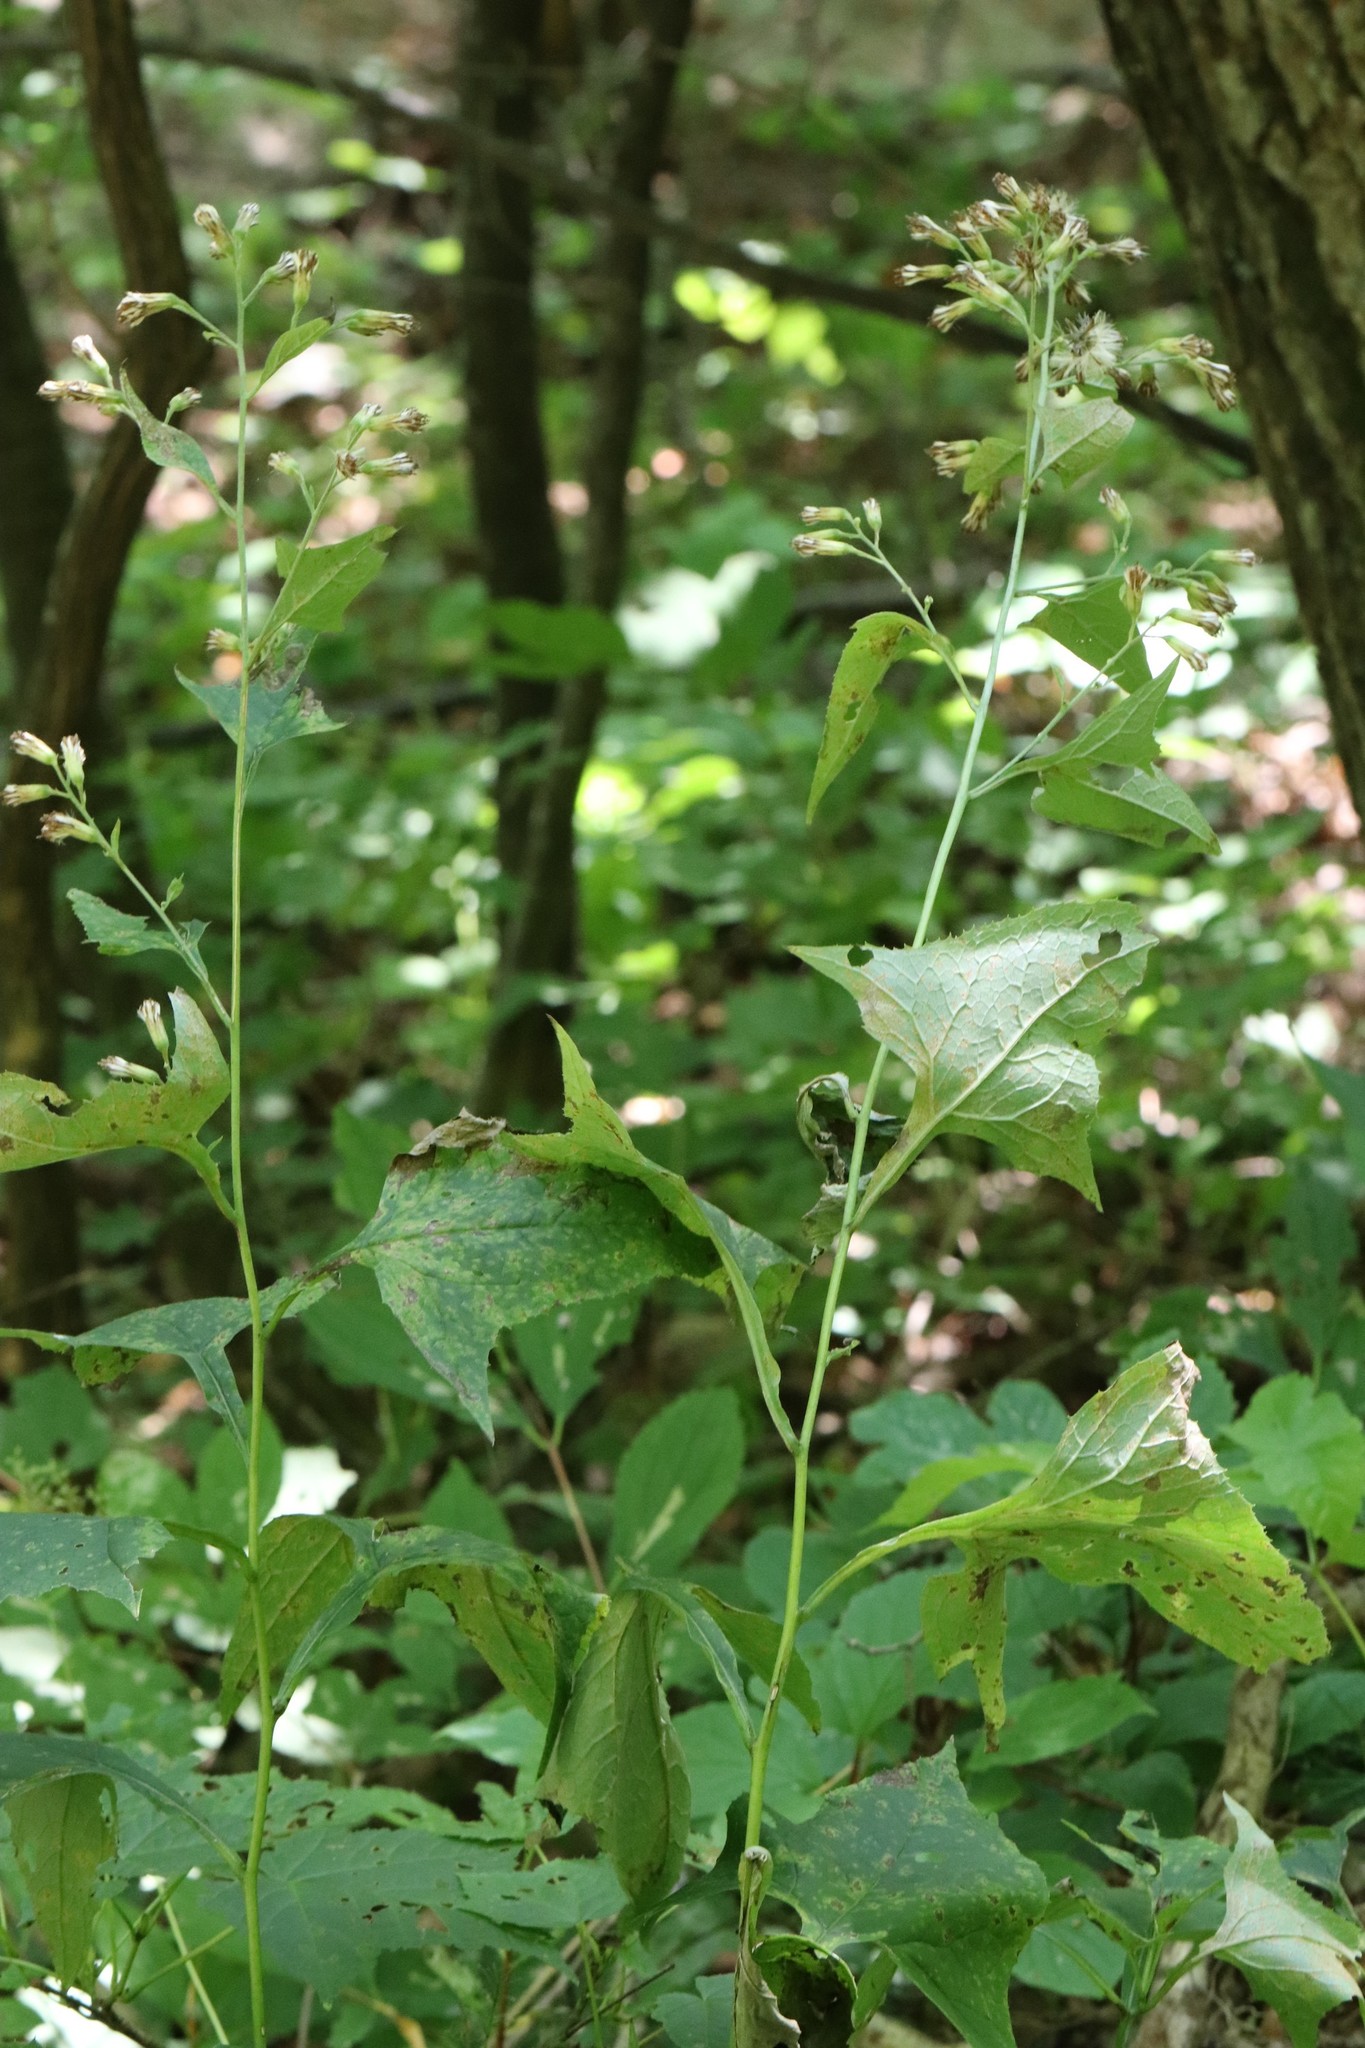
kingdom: Plantae
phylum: Tracheophyta
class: Magnoliopsida
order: Asterales
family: Asteraceae
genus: Parasenecio
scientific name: Parasenecio hastatus
